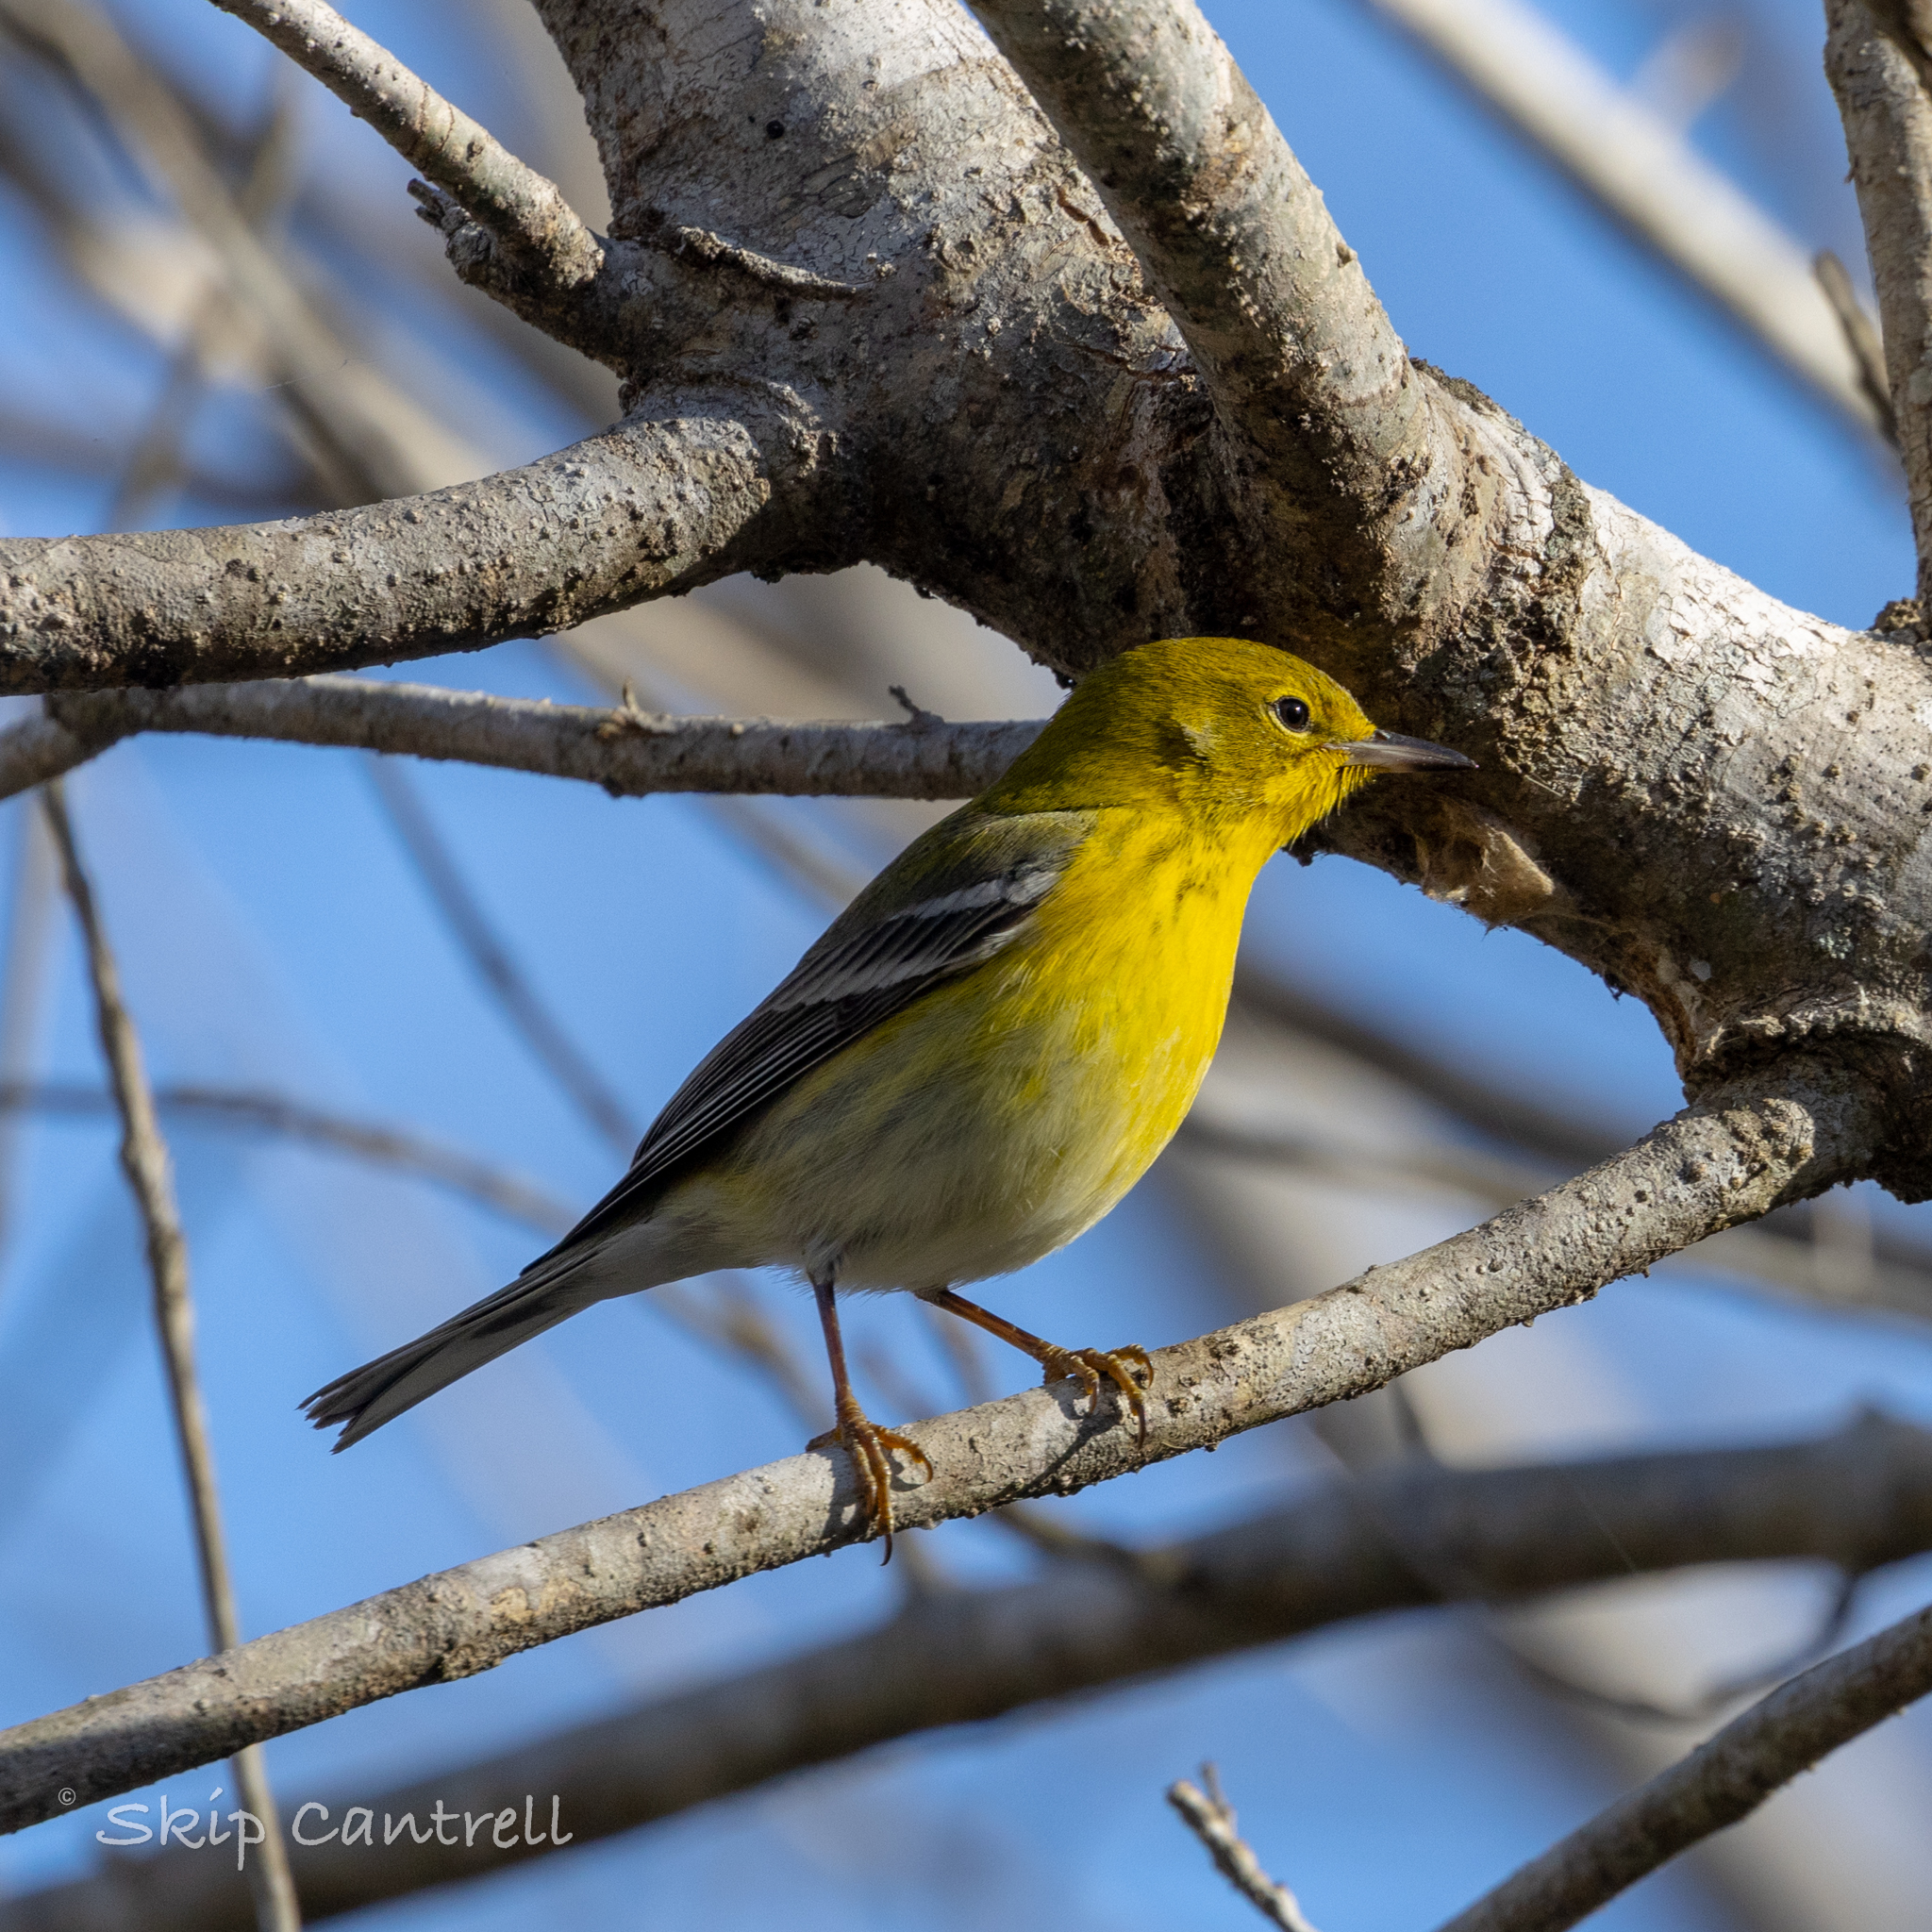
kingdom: Animalia
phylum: Chordata
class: Aves
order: Passeriformes
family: Parulidae
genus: Setophaga
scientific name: Setophaga pinus
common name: Pine warbler
